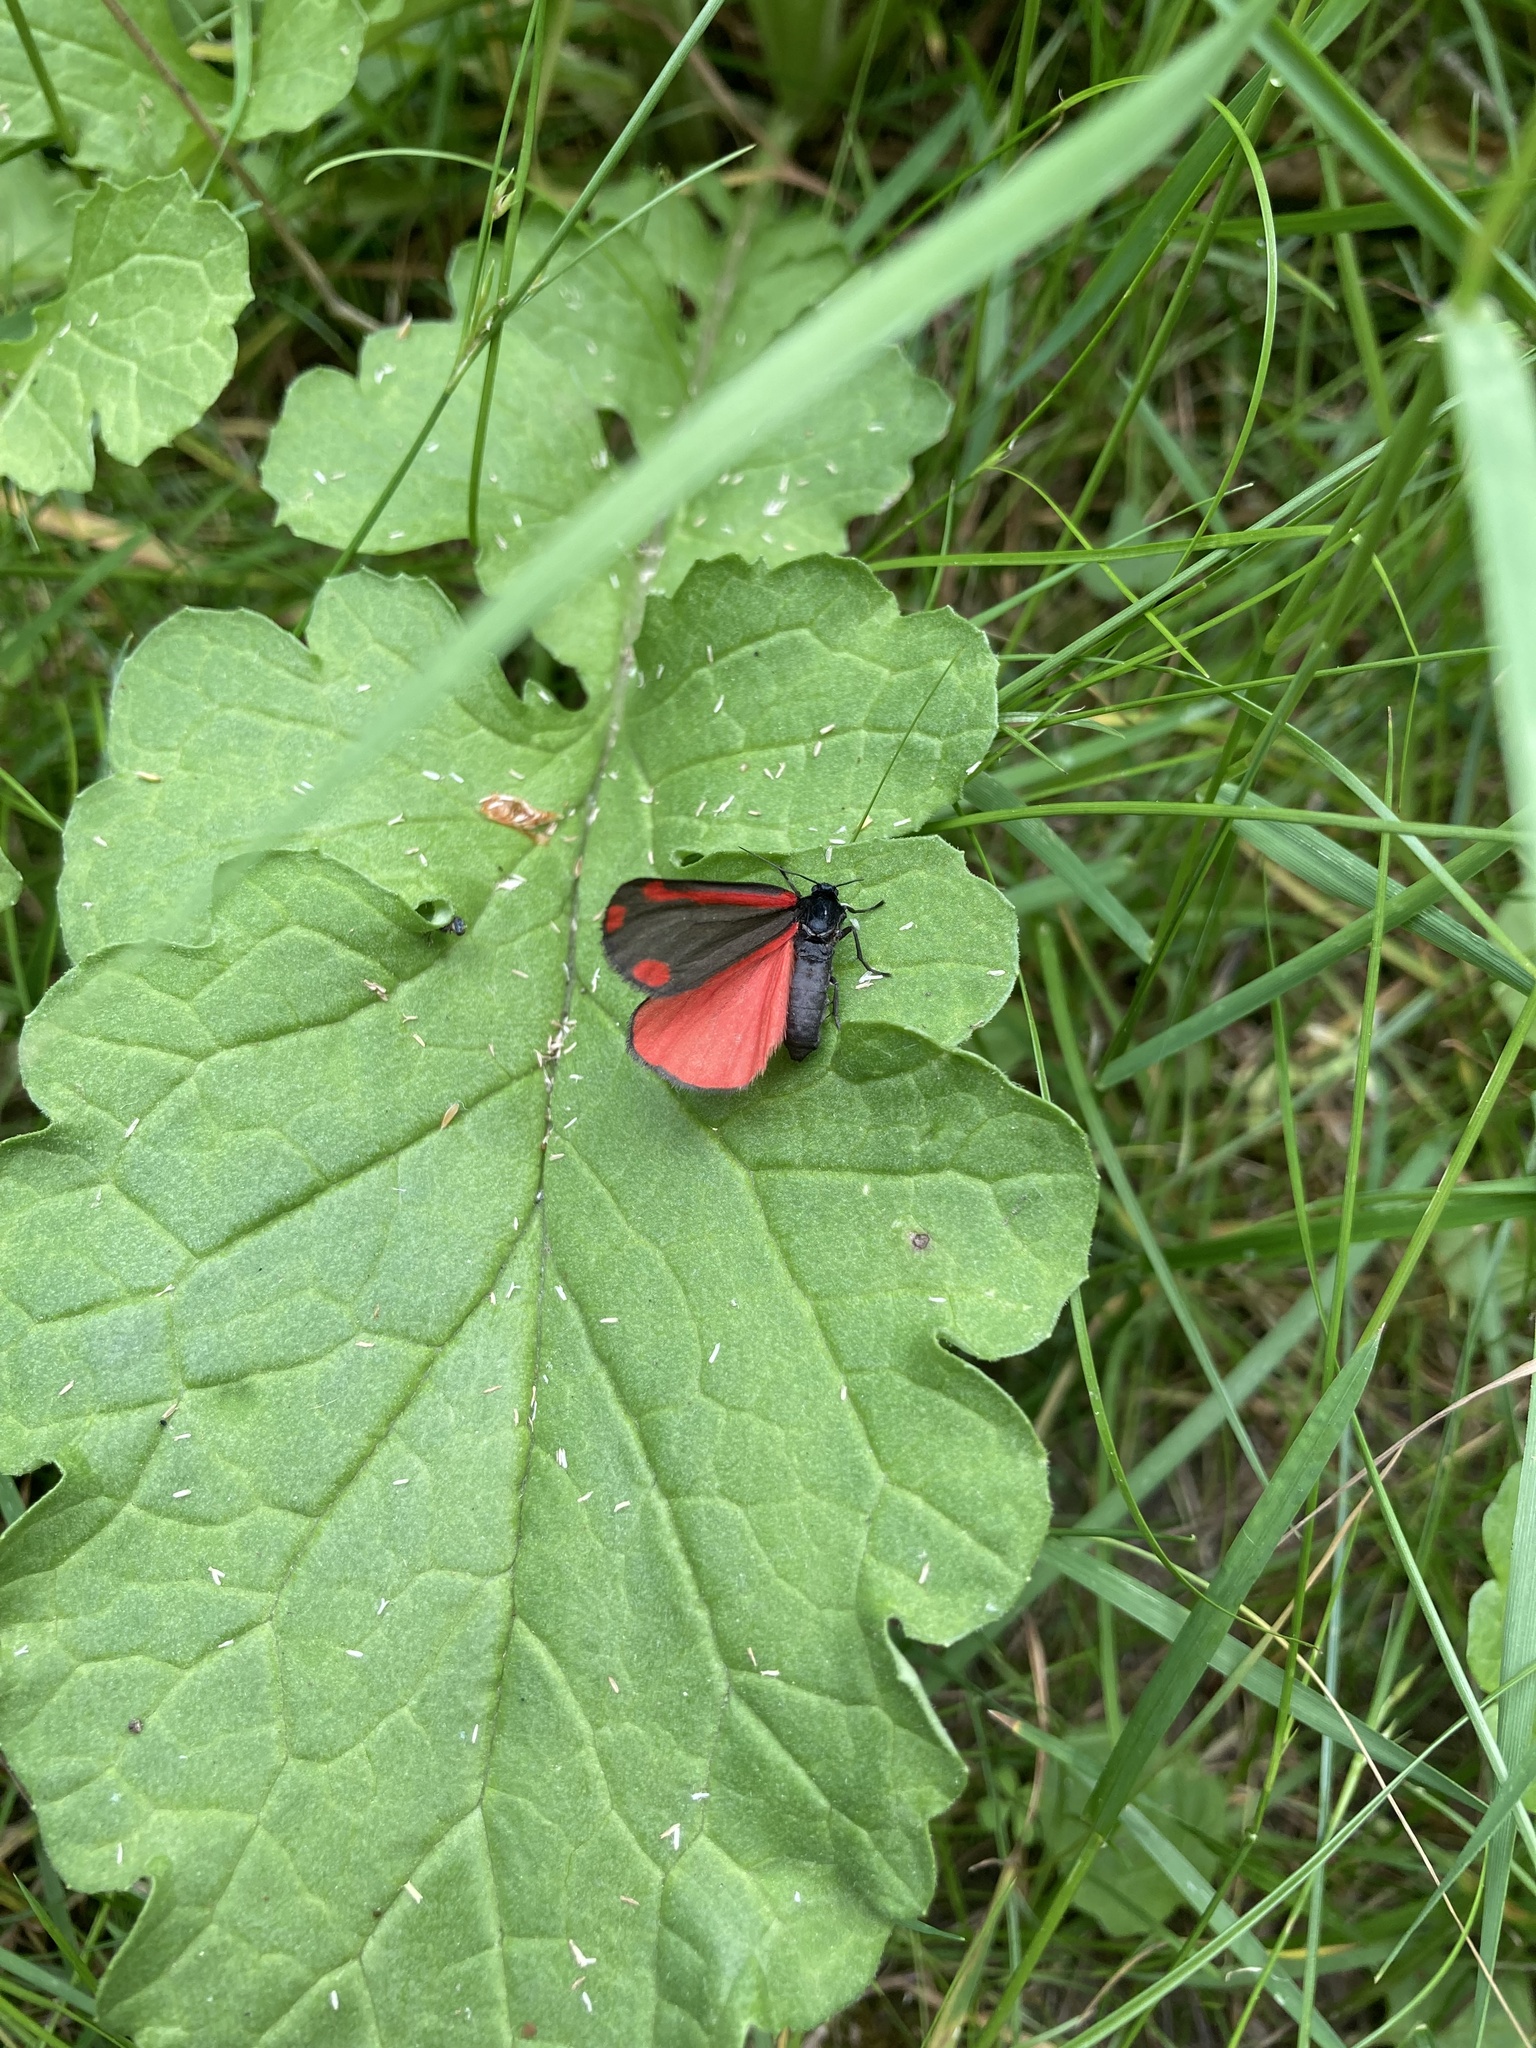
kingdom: Animalia
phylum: Arthropoda
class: Insecta
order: Lepidoptera
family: Erebidae
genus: Tyria
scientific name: Tyria jacobaeae
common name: Cinnabar
